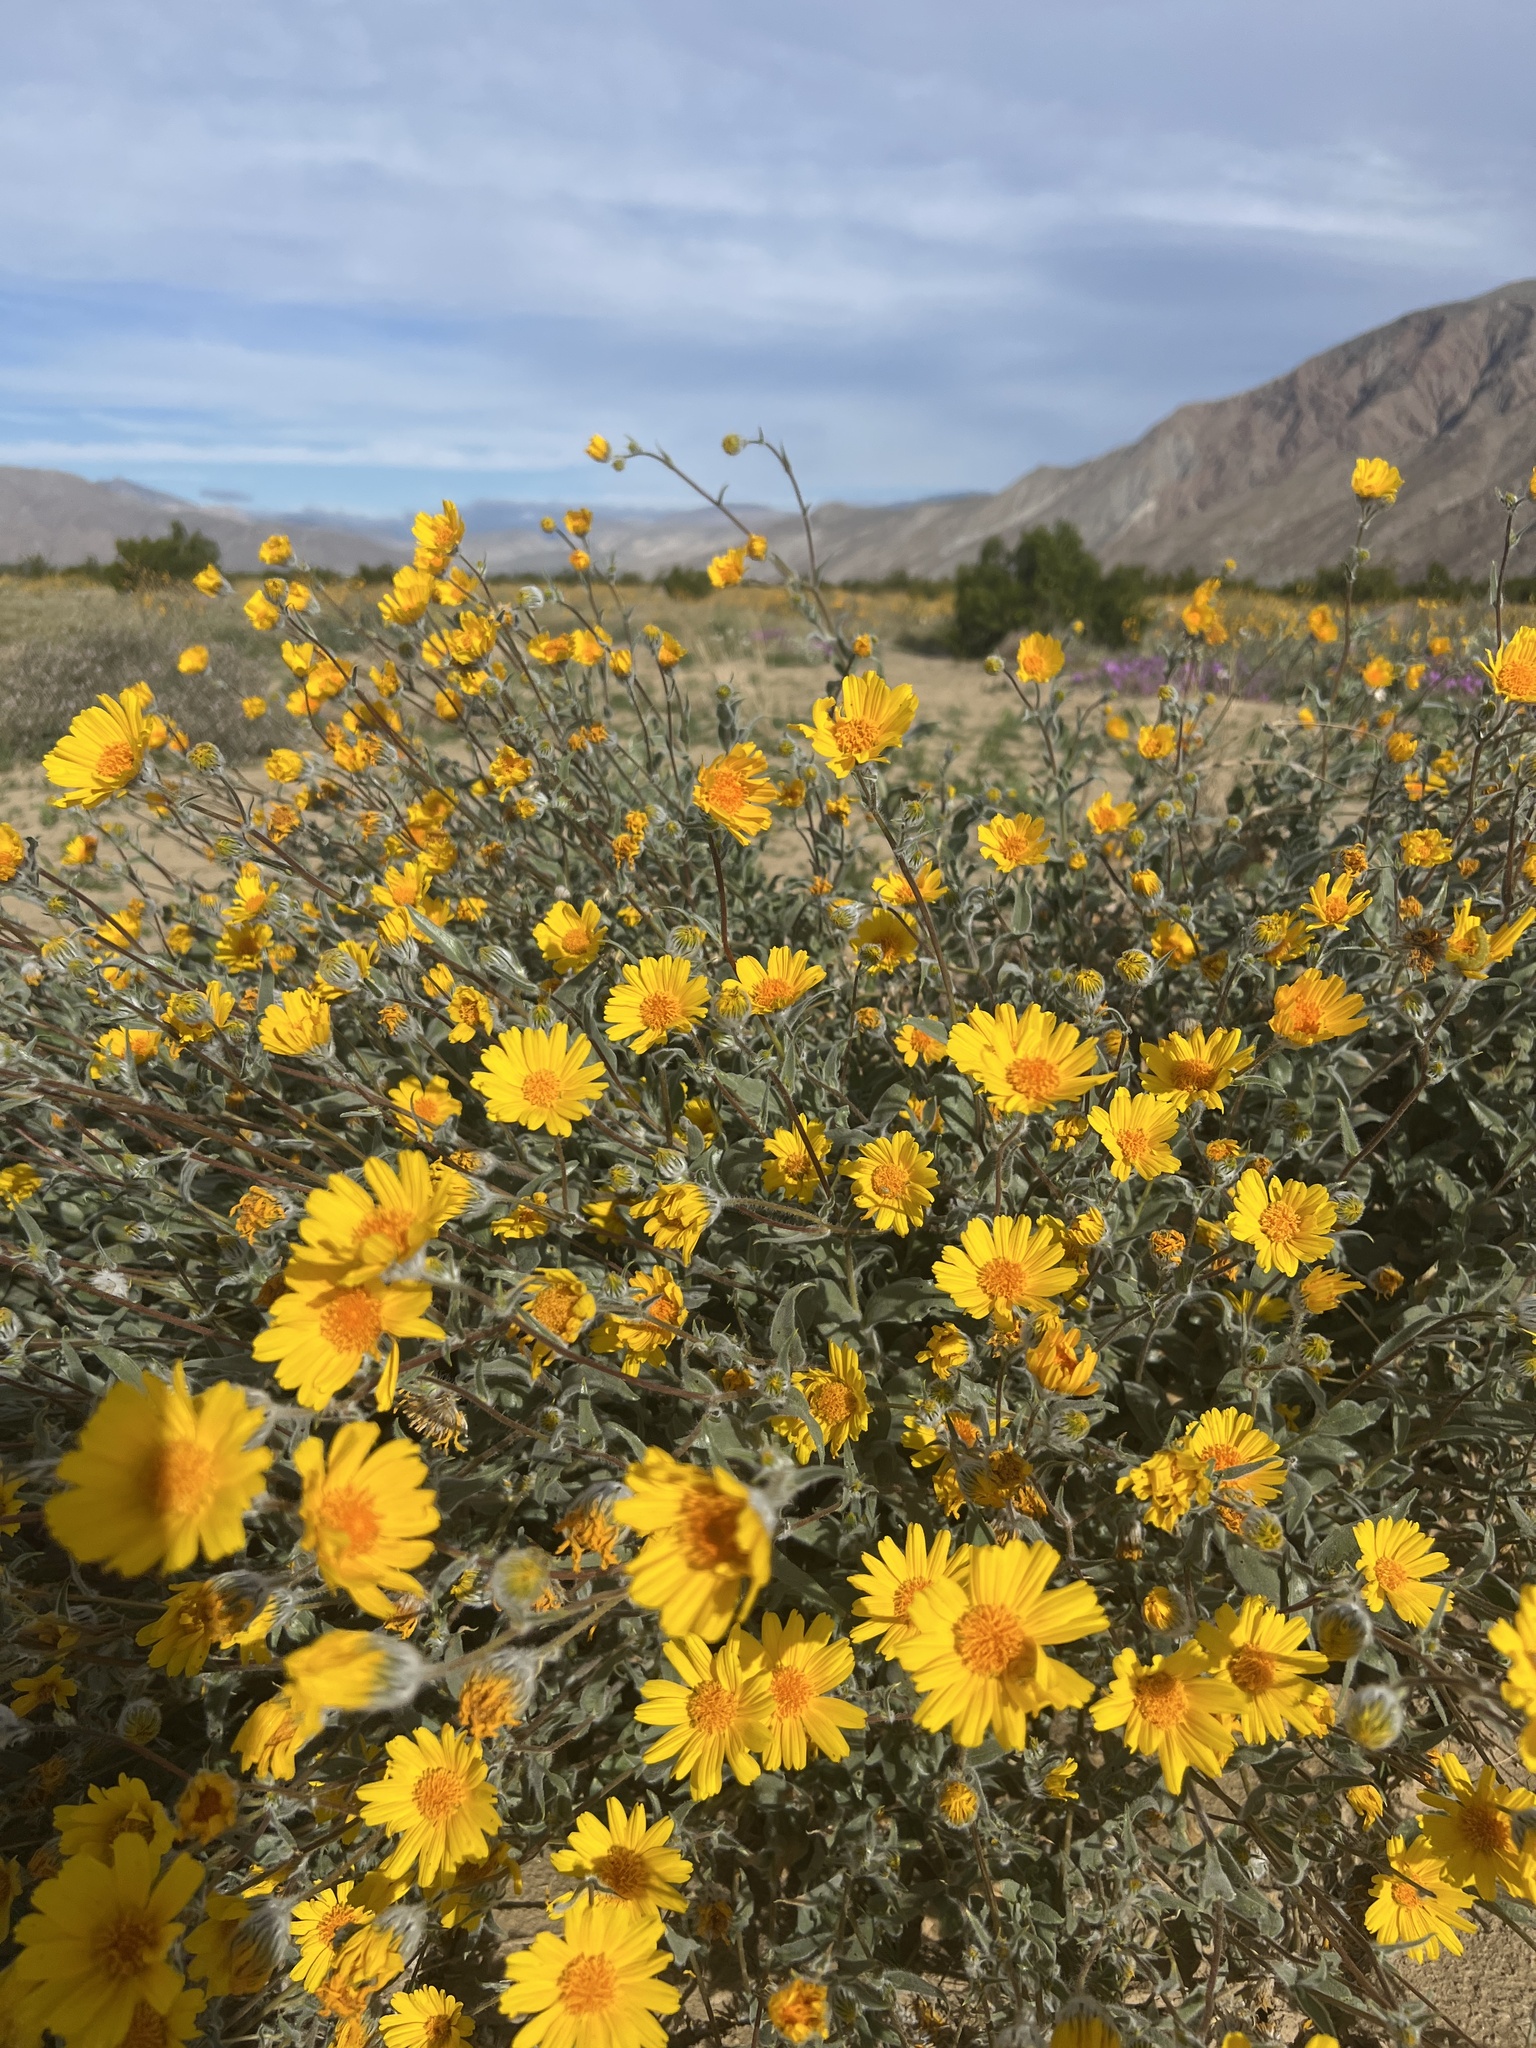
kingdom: Plantae
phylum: Tracheophyta
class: Magnoliopsida
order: Asterales
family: Asteraceae
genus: Geraea
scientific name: Geraea canescens
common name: Desert-gold
